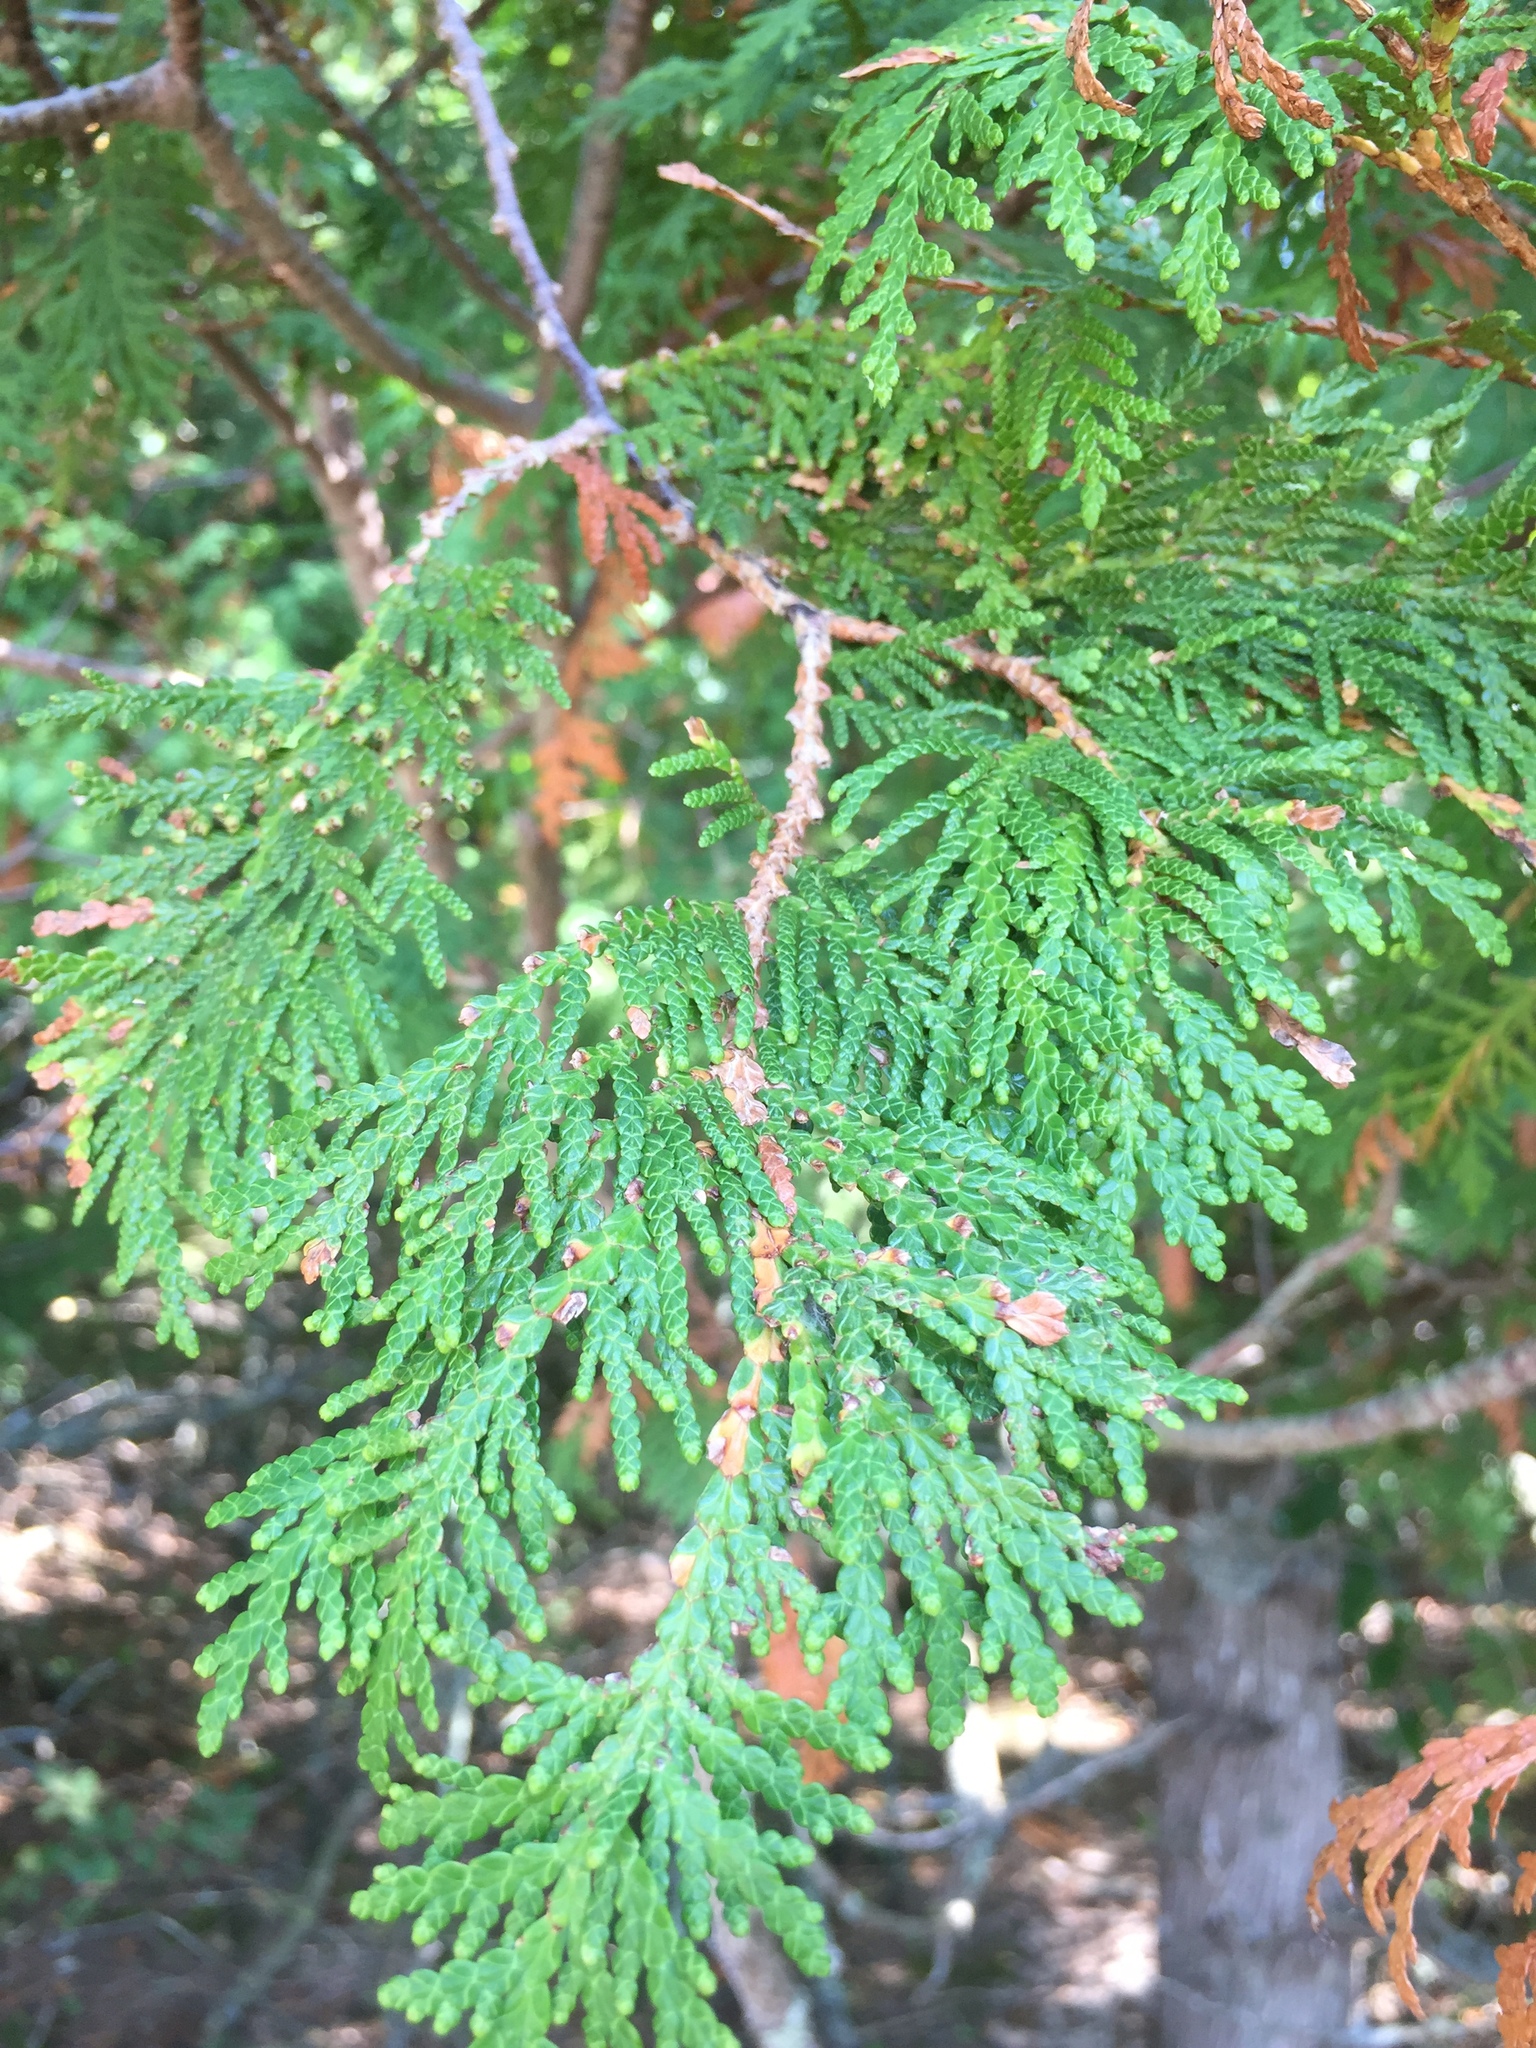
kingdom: Plantae
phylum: Tracheophyta
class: Pinopsida
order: Pinales
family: Cupressaceae
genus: Thuja
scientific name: Thuja occidentalis
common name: Northern white-cedar
